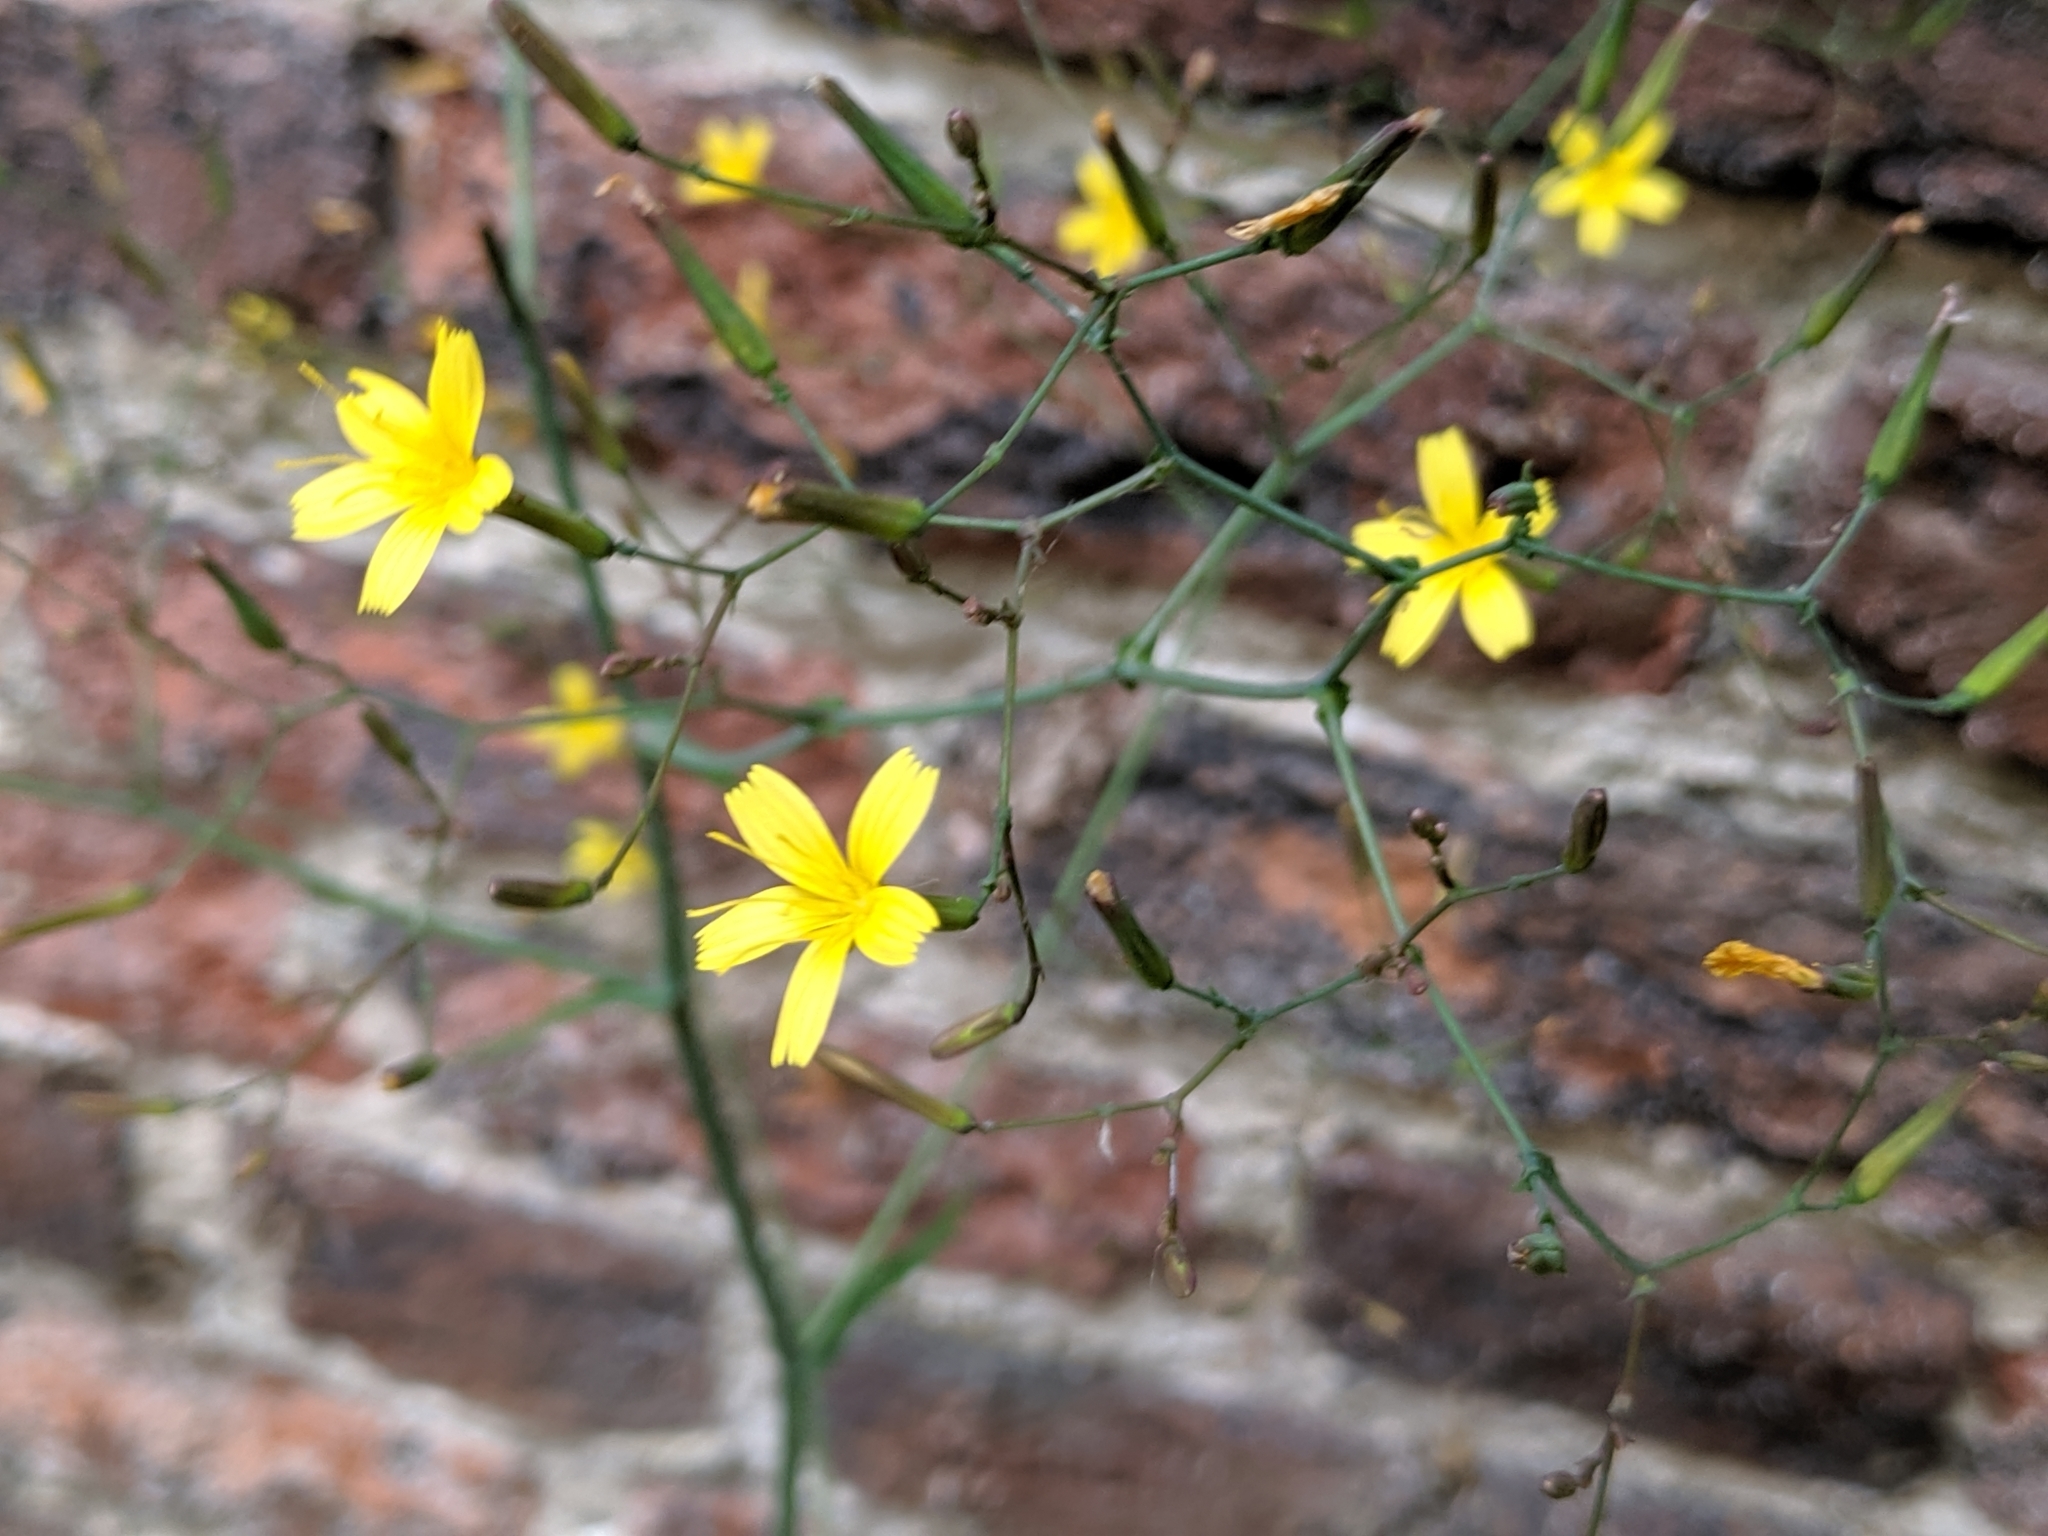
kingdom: Plantae
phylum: Tracheophyta
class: Magnoliopsida
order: Asterales
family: Asteraceae
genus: Mycelis
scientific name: Mycelis muralis
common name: Wall lettuce
